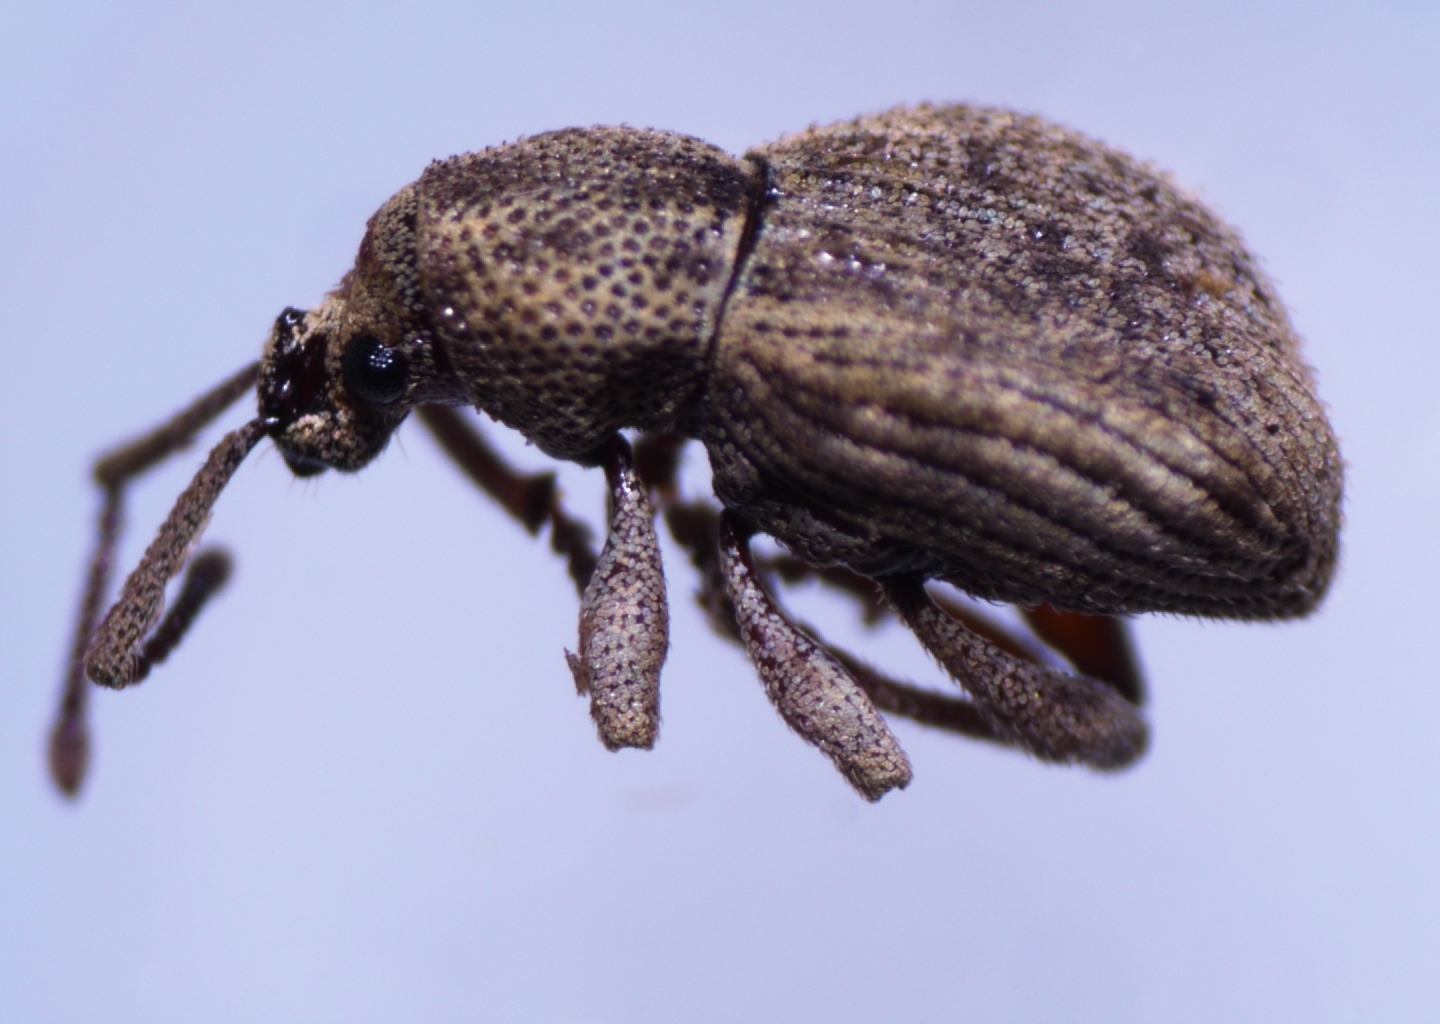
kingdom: Animalia
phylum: Arthropoda
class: Insecta
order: Coleoptera
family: Curculionidae
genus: Platysimus
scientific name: Platysimus insularis
